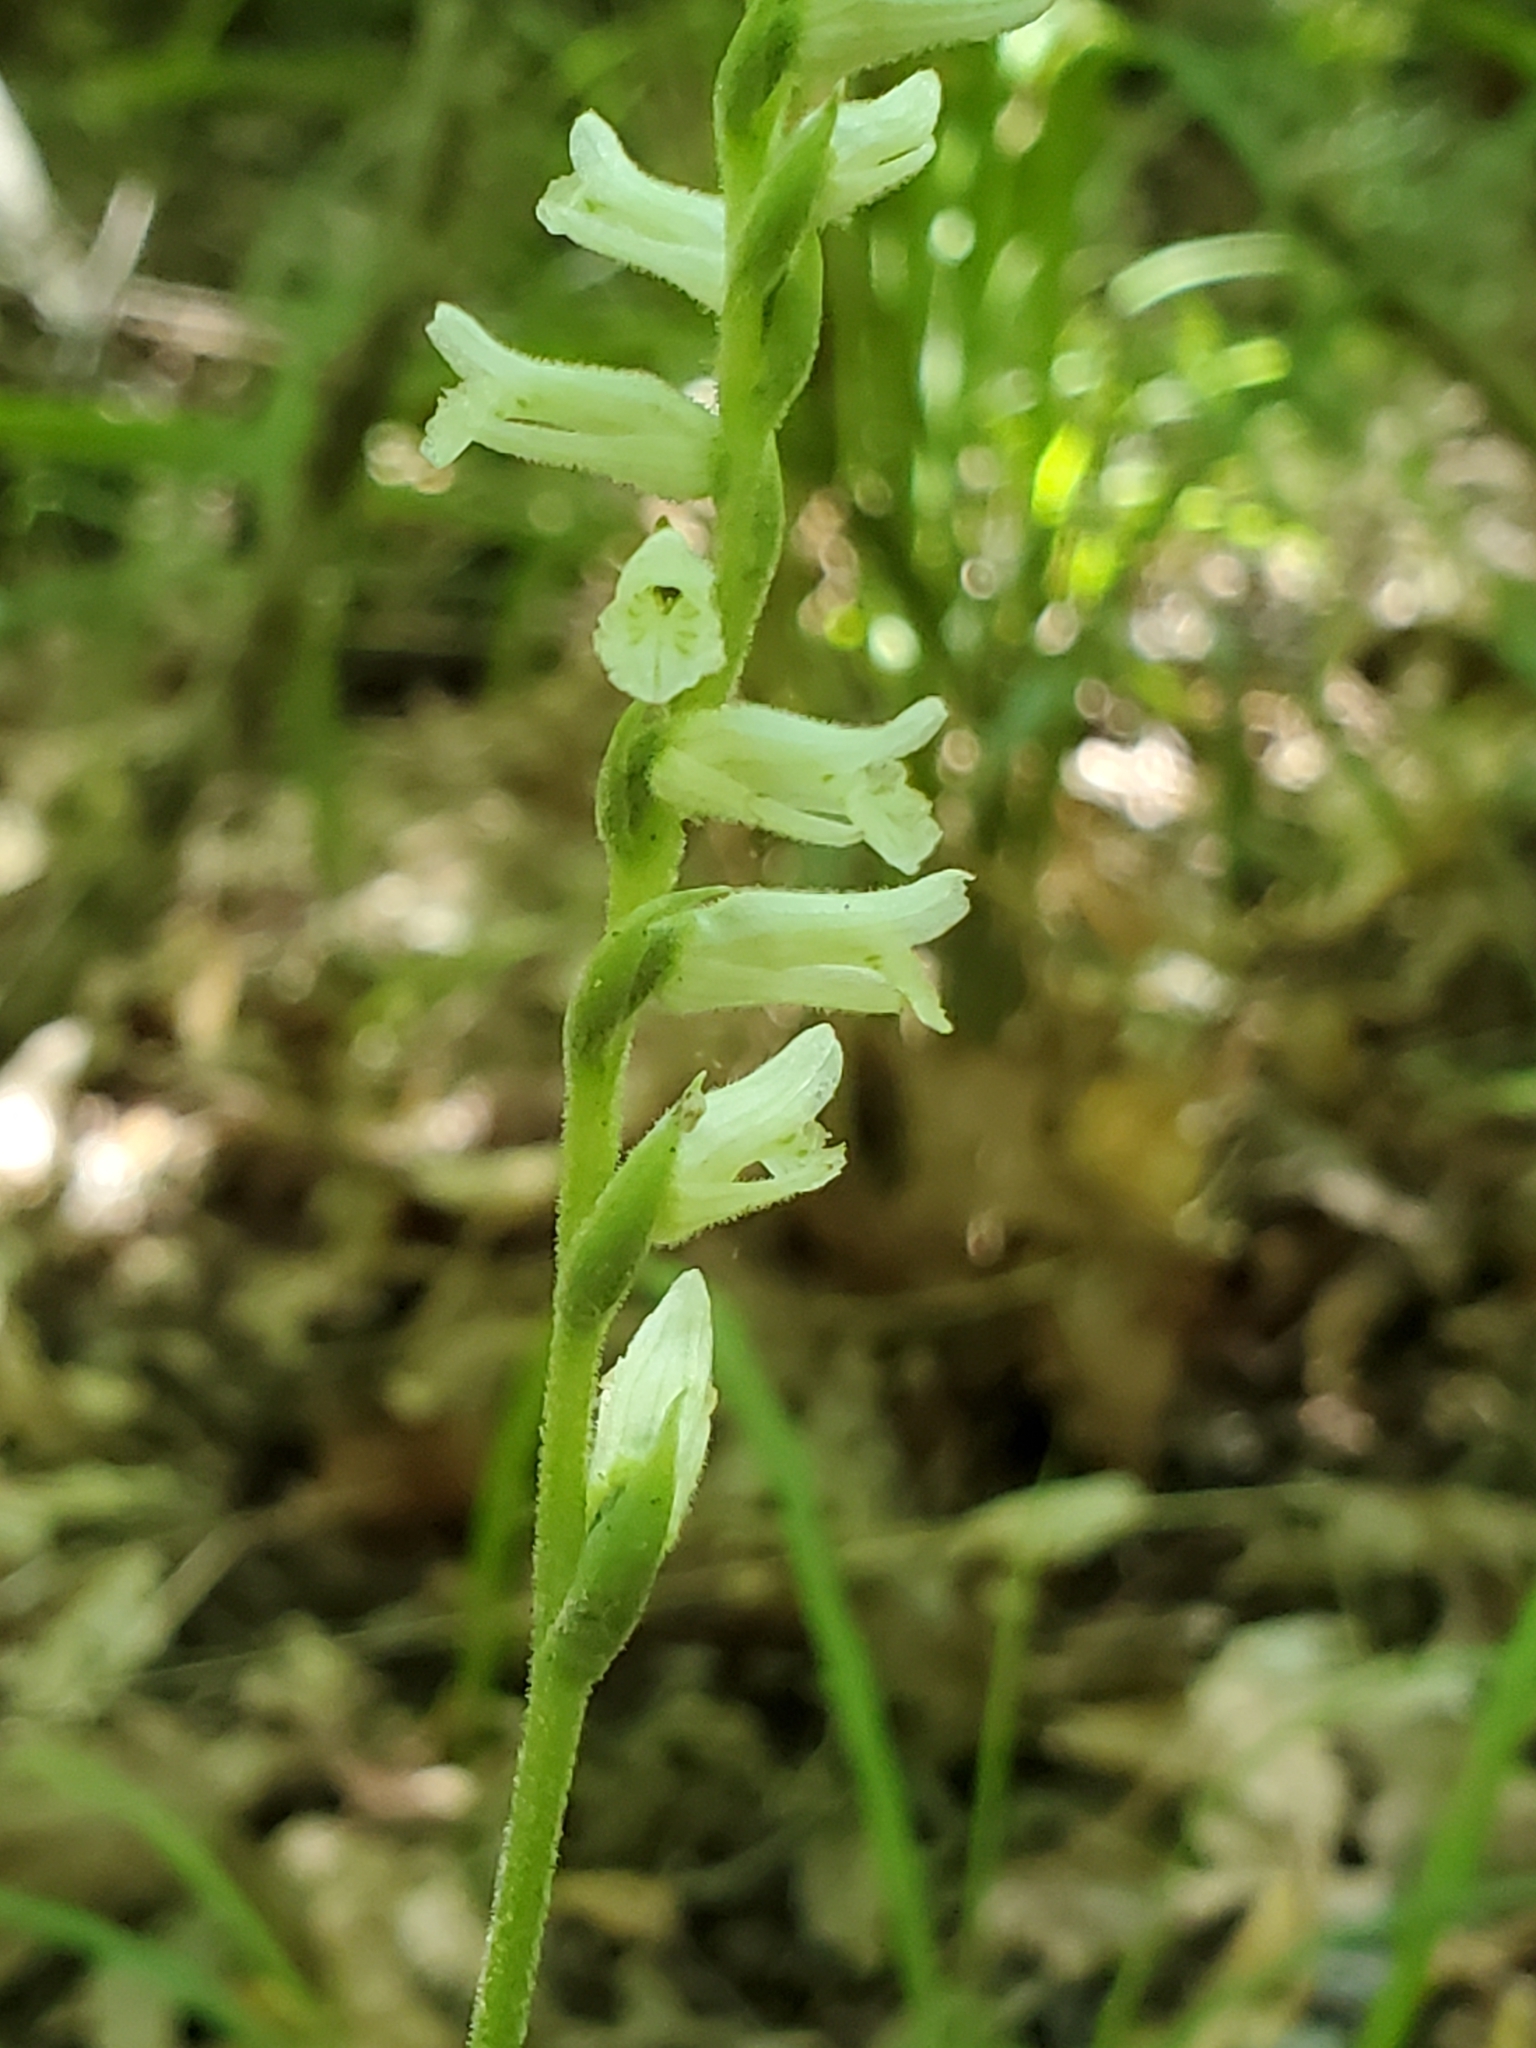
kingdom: Plantae
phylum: Tracheophyta
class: Liliopsida
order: Asparagales
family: Orchidaceae
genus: Spiranthes
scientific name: Spiranthes praecox
